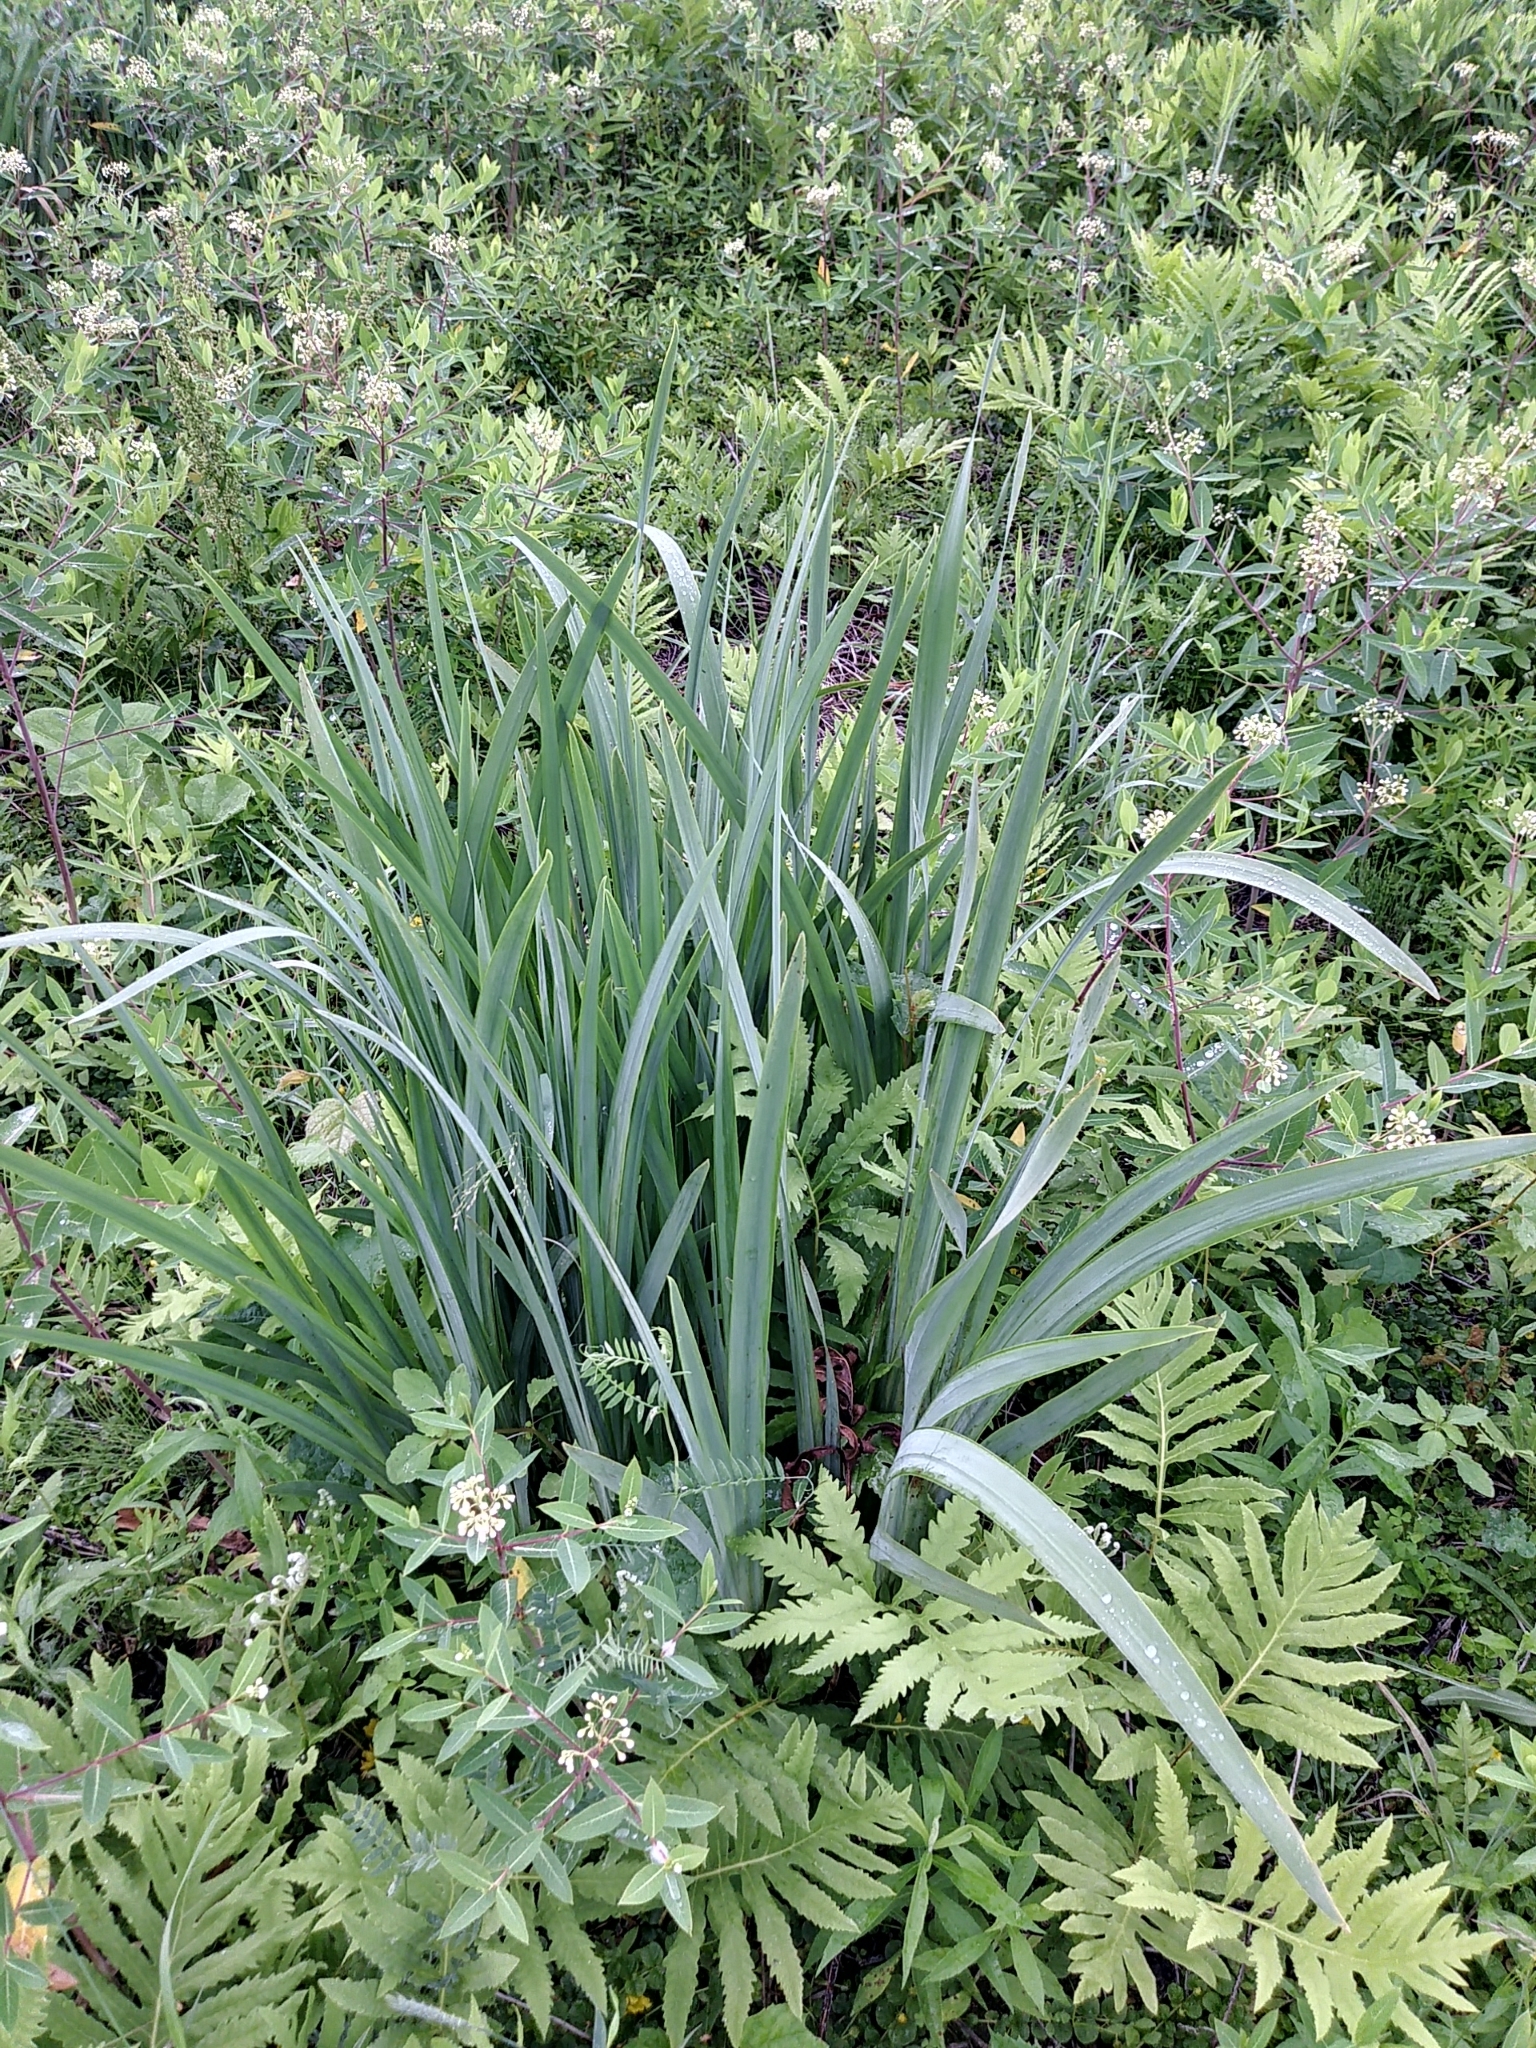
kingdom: Plantae
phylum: Tracheophyta
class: Liliopsida
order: Asparagales
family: Iridaceae
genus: Iris
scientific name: Iris pseudacorus
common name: Yellow flag
